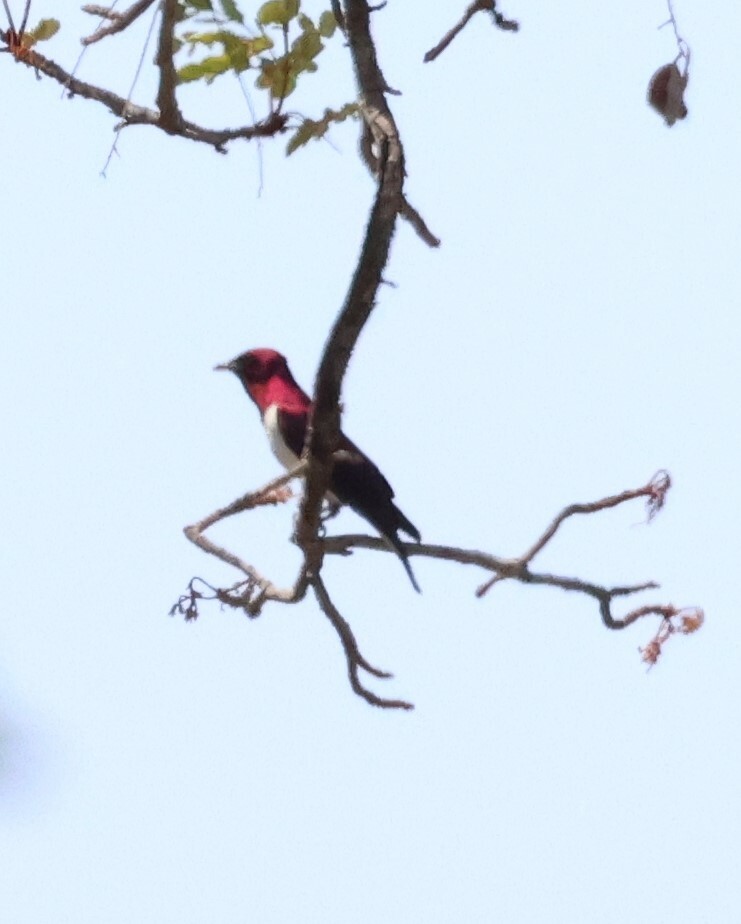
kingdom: Animalia
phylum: Chordata
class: Aves
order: Passeriformes
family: Sturnidae
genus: Cinnyricinclus
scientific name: Cinnyricinclus leucogaster
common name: Violet-backed starling
